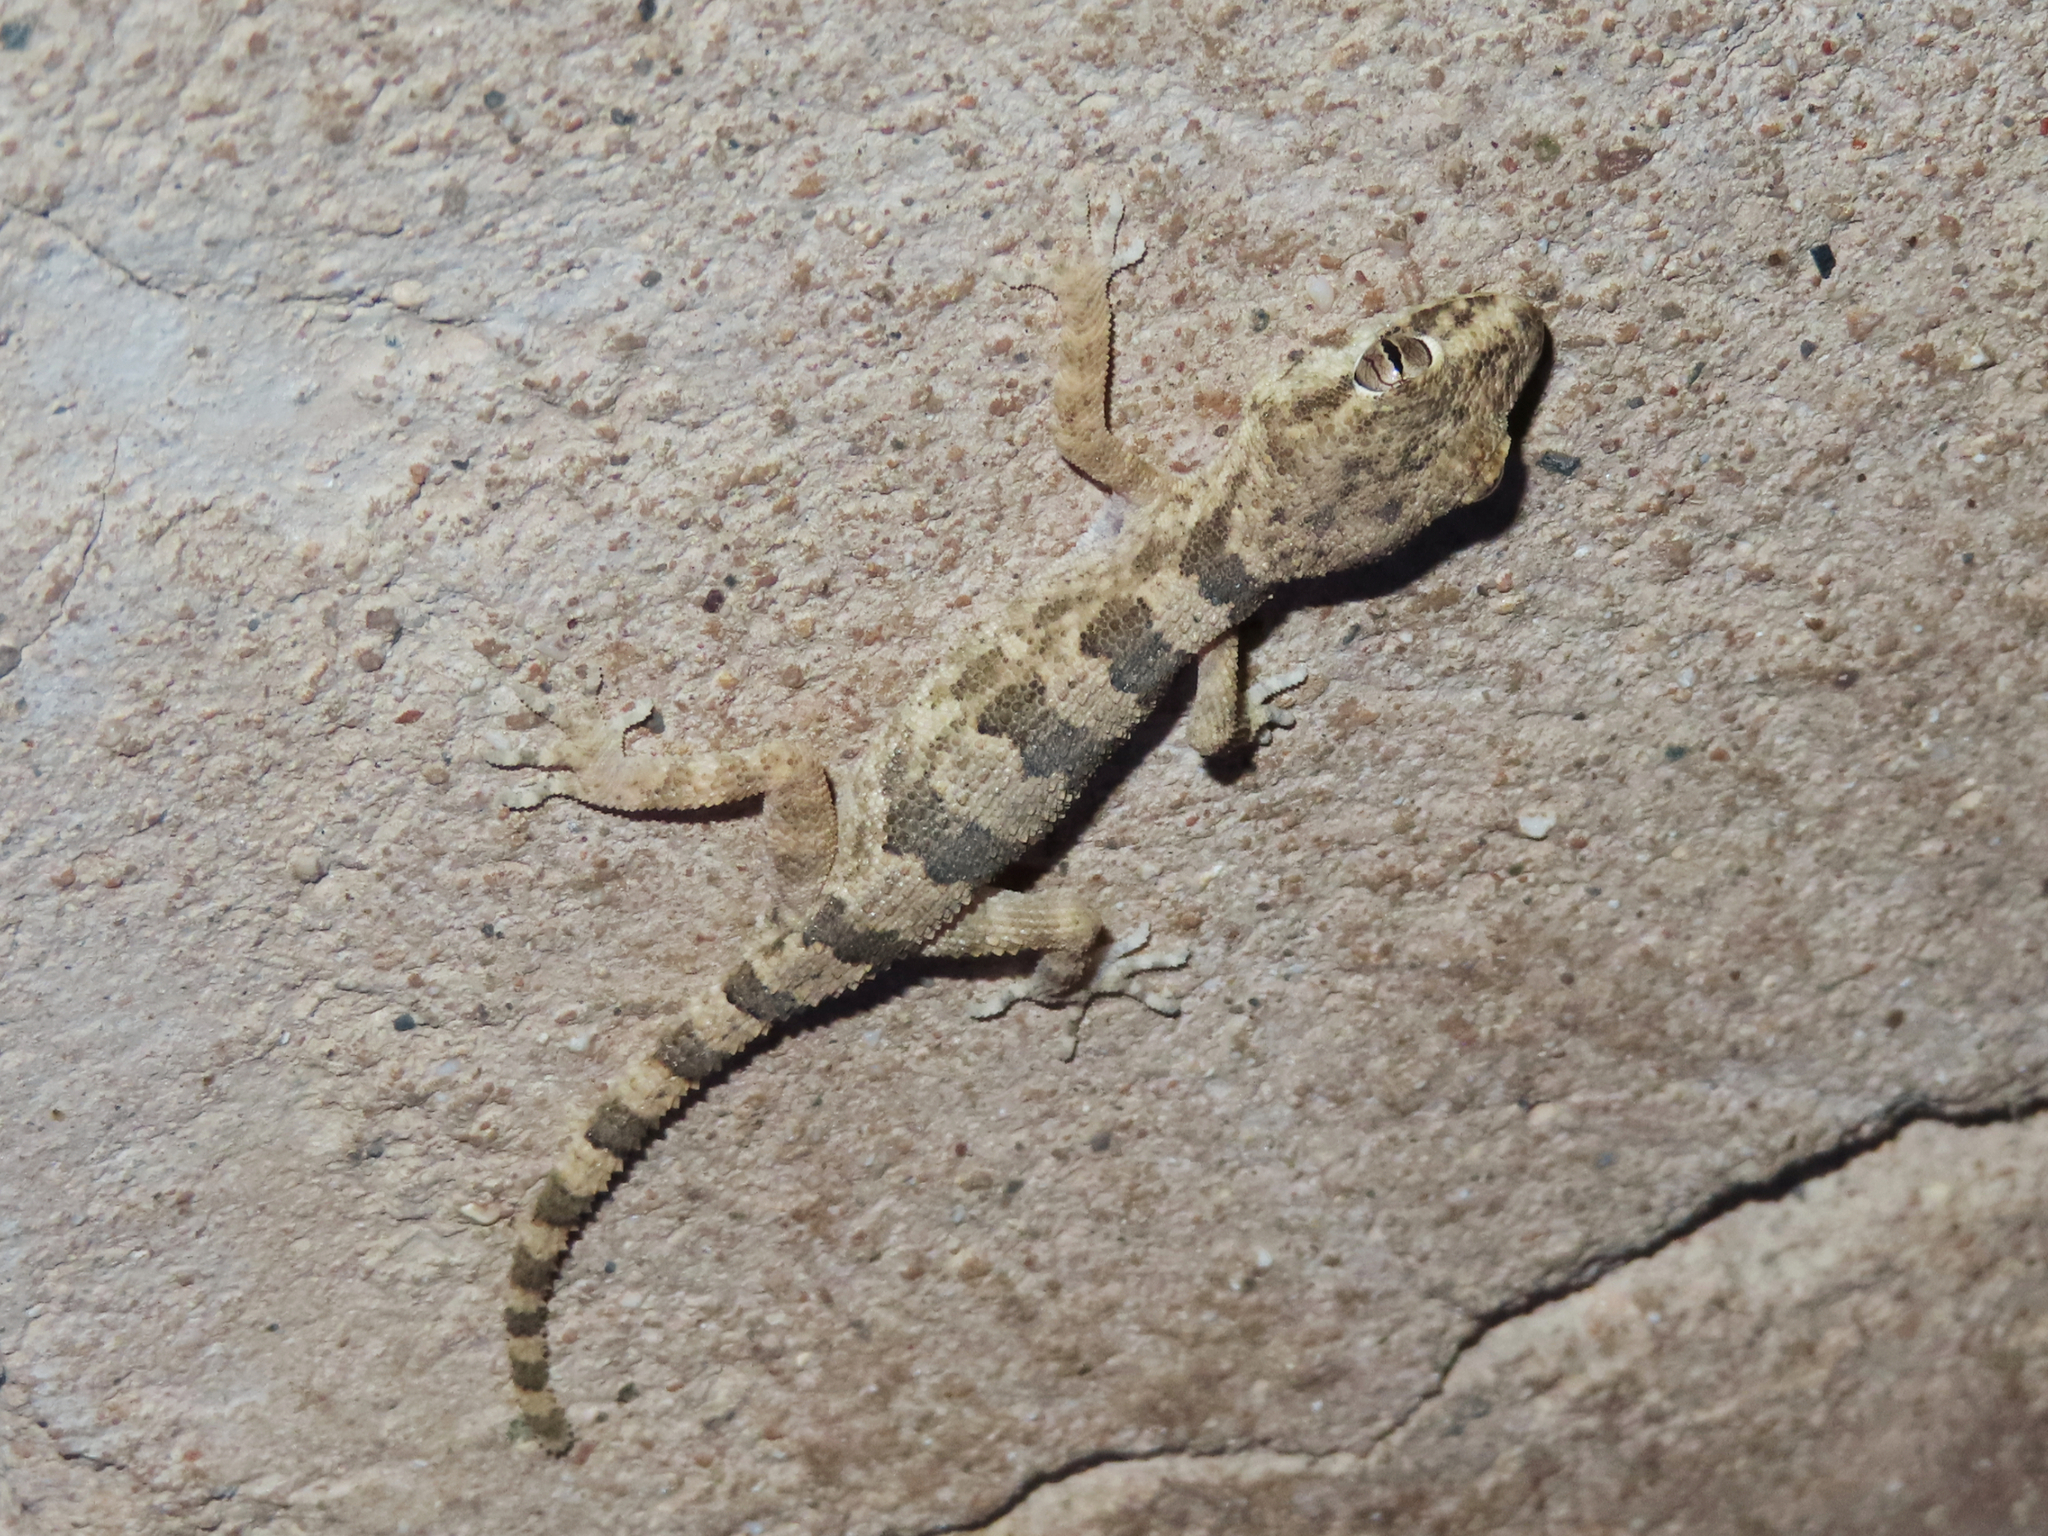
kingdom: Animalia
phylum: Chordata
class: Squamata
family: Gekkonidae
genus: Trachydactylus
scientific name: Trachydactylus hajarensis
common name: Banded rock gecko
